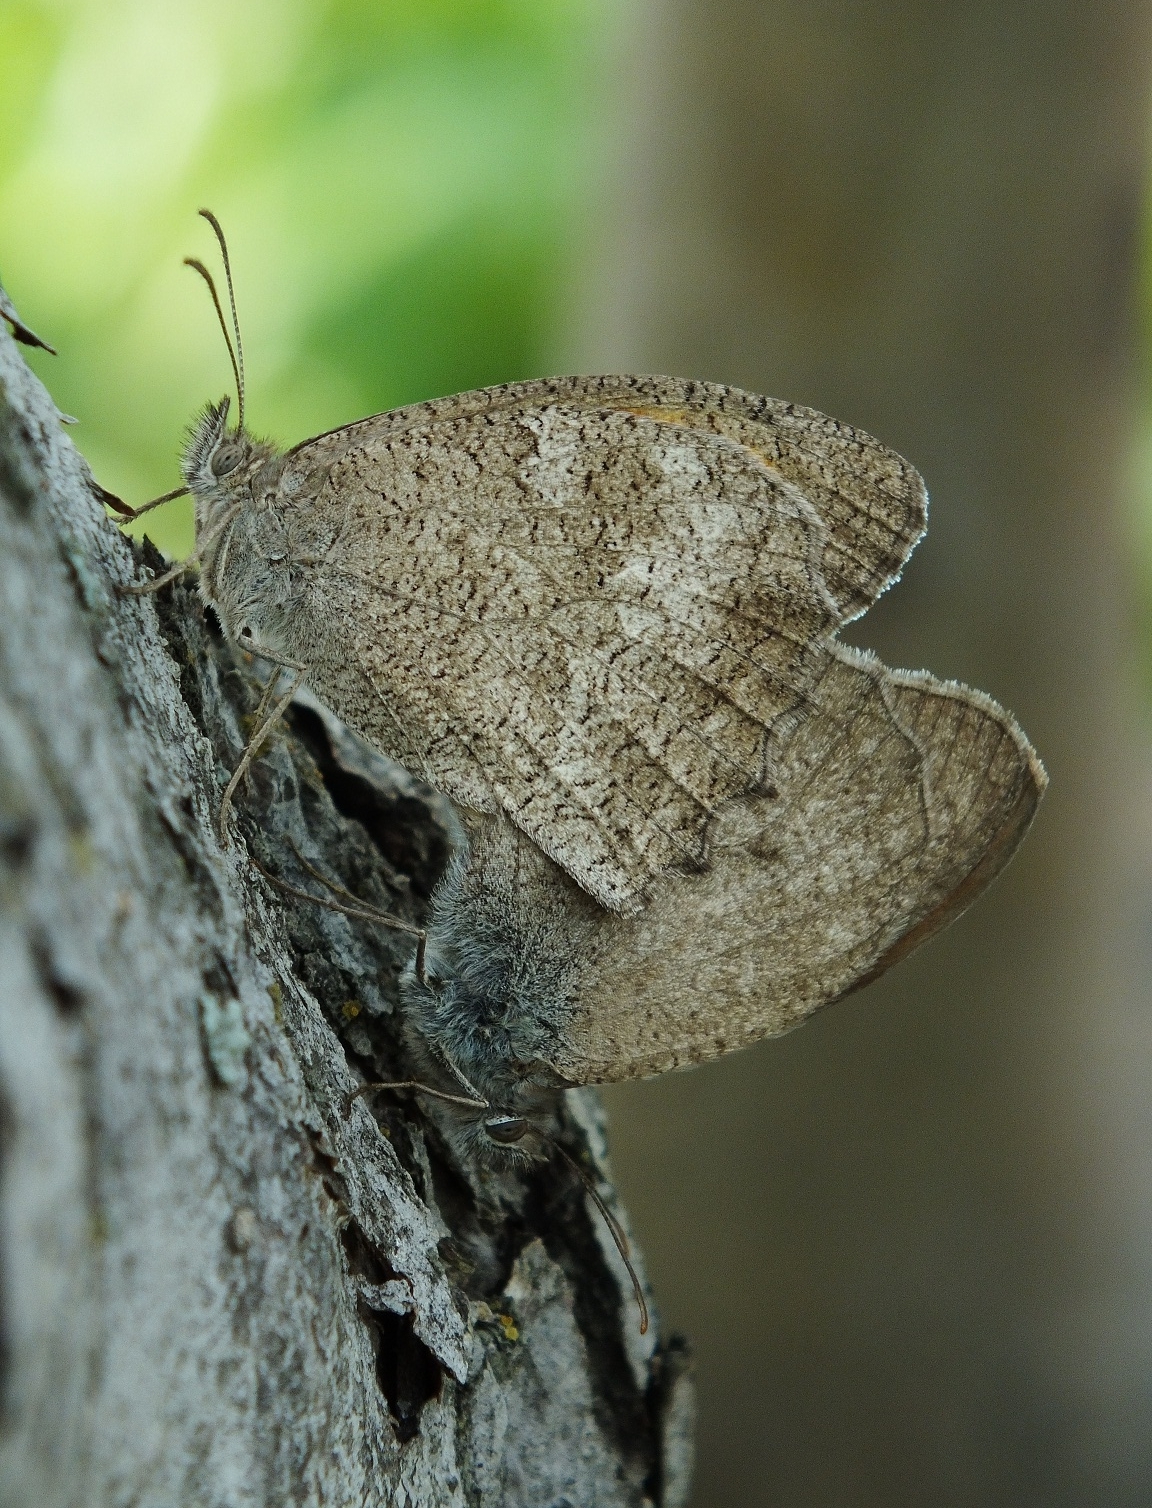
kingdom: Animalia
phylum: Arthropoda
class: Insecta
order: Lepidoptera
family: Nymphalidae
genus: Hyponephele
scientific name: Hyponephele lupinus
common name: Oriental meadow brown
